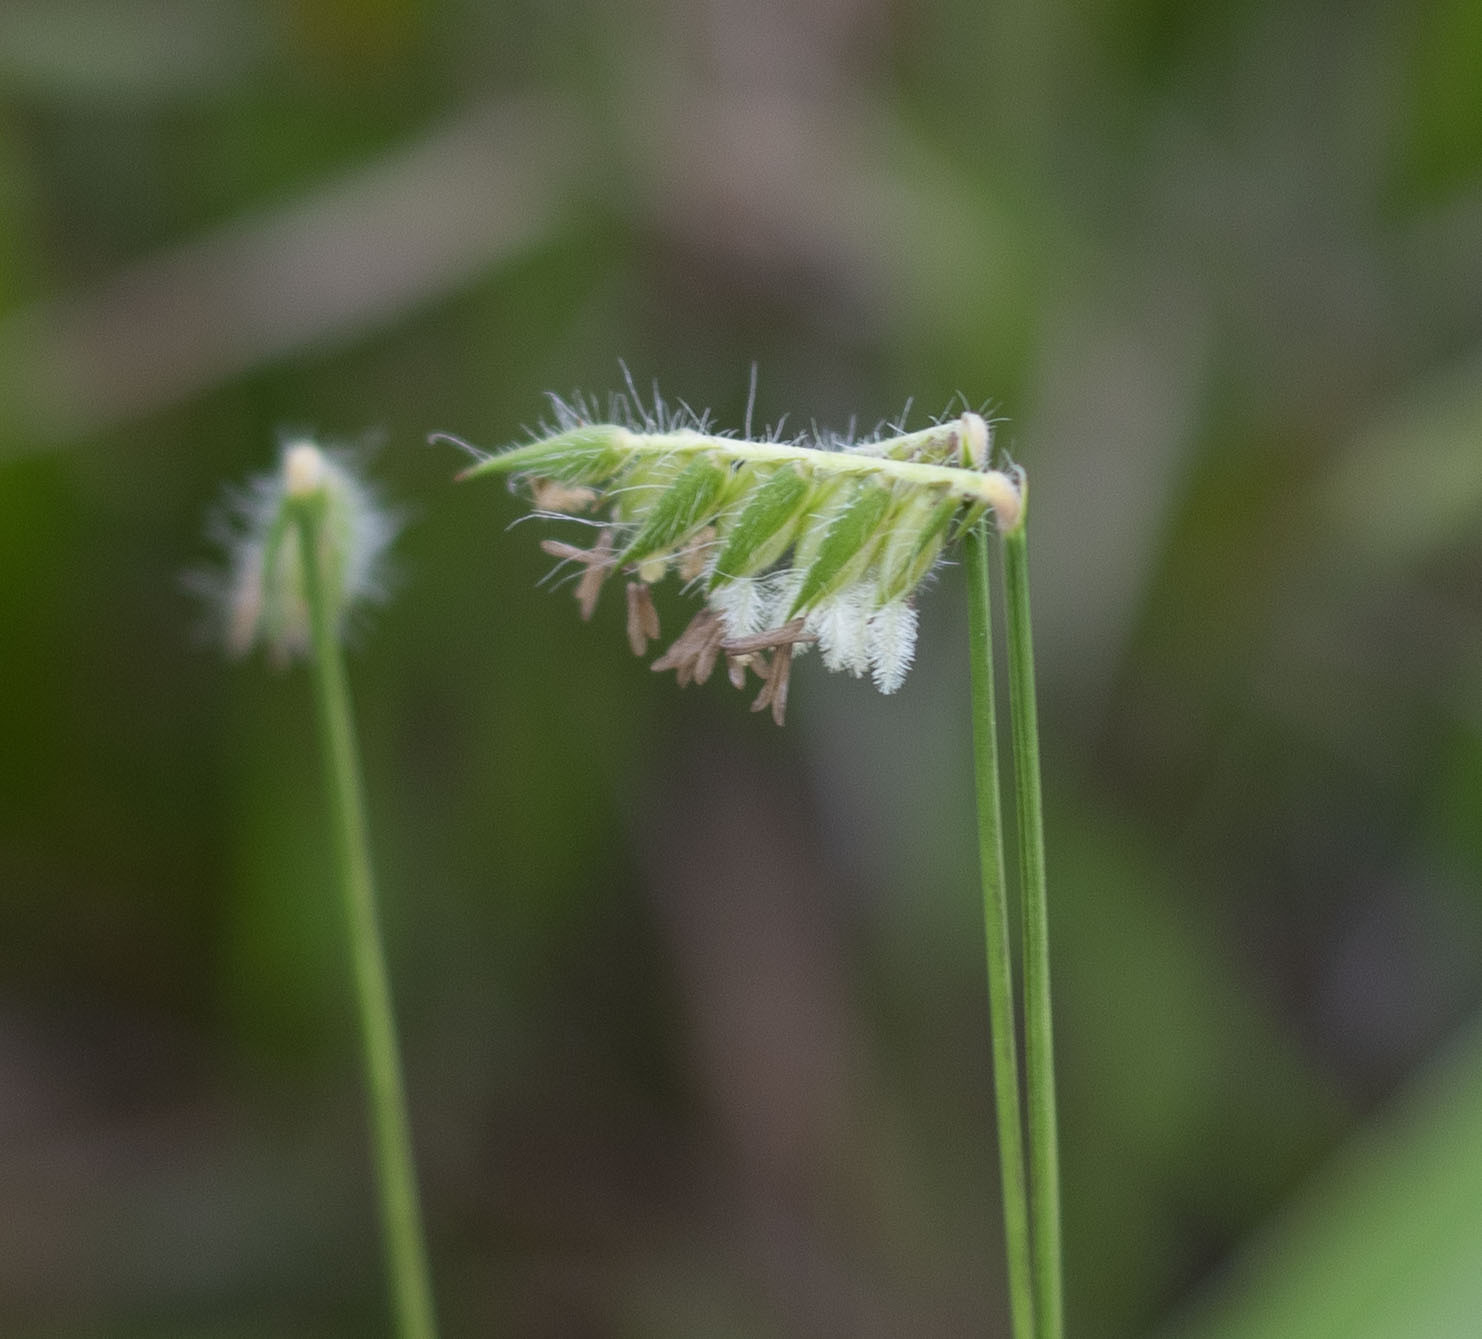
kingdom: Plantae
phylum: Tracheophyta
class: Liliopsida
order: Poales
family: Poaceae
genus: Echinolaena
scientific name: Echinolaena inflexa
